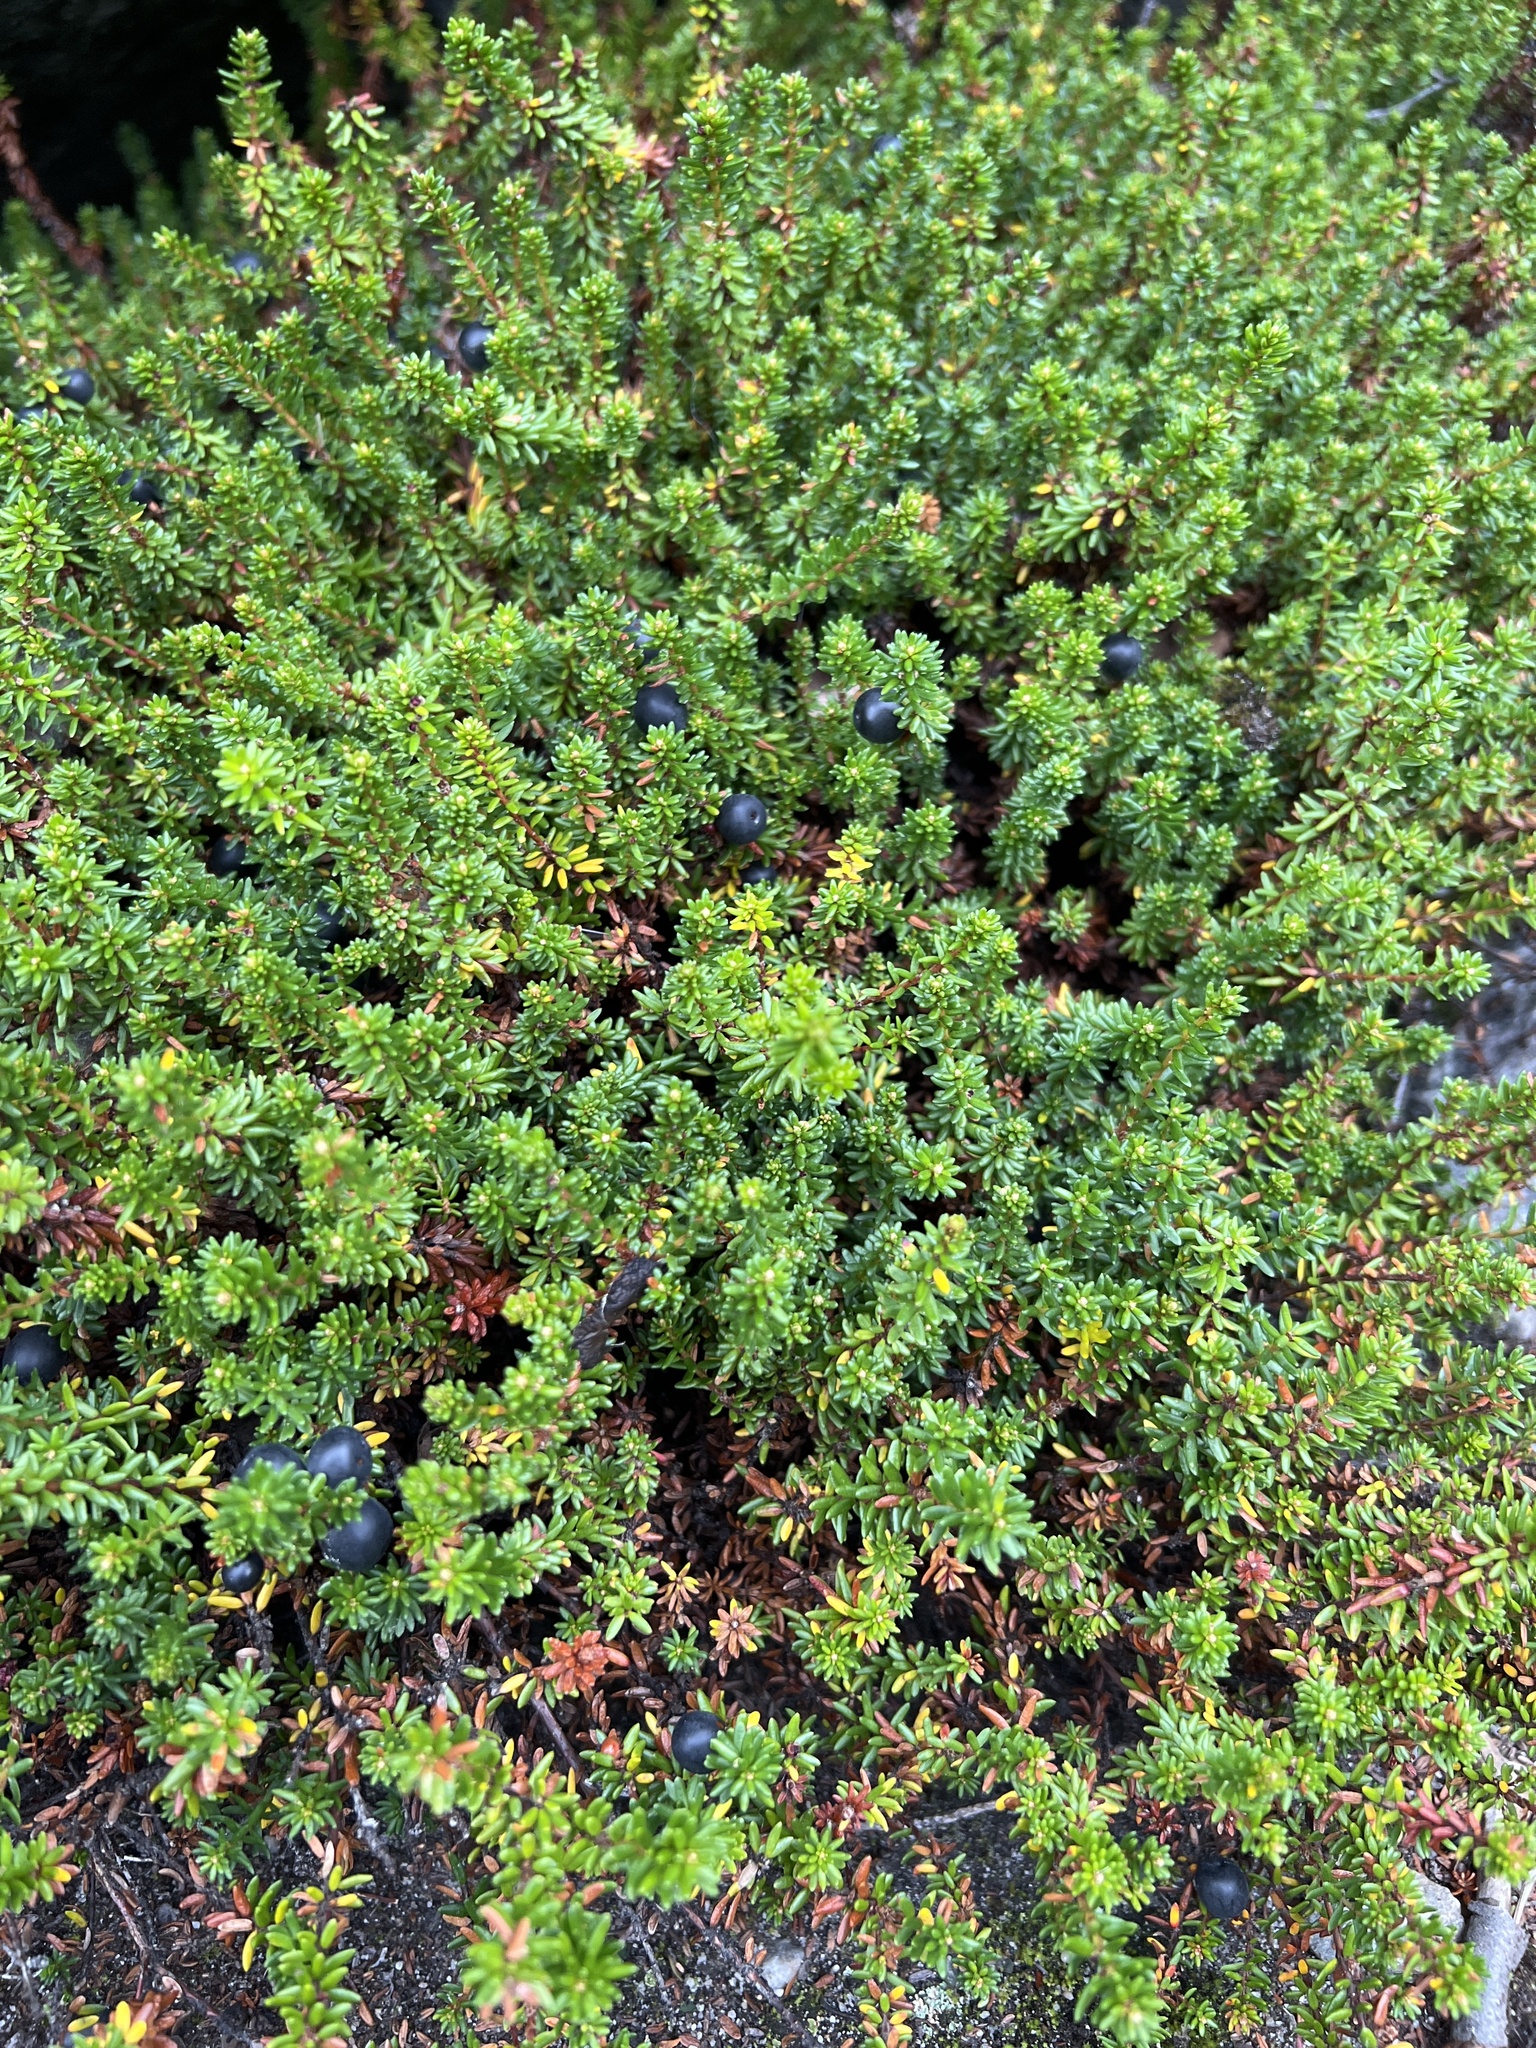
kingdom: Plantae
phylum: Tracheophyta
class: Magnoliopsida
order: Ericales
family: Ericaceae
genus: Empetrum
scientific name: Empetrum nigrum
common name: Black crowberry
